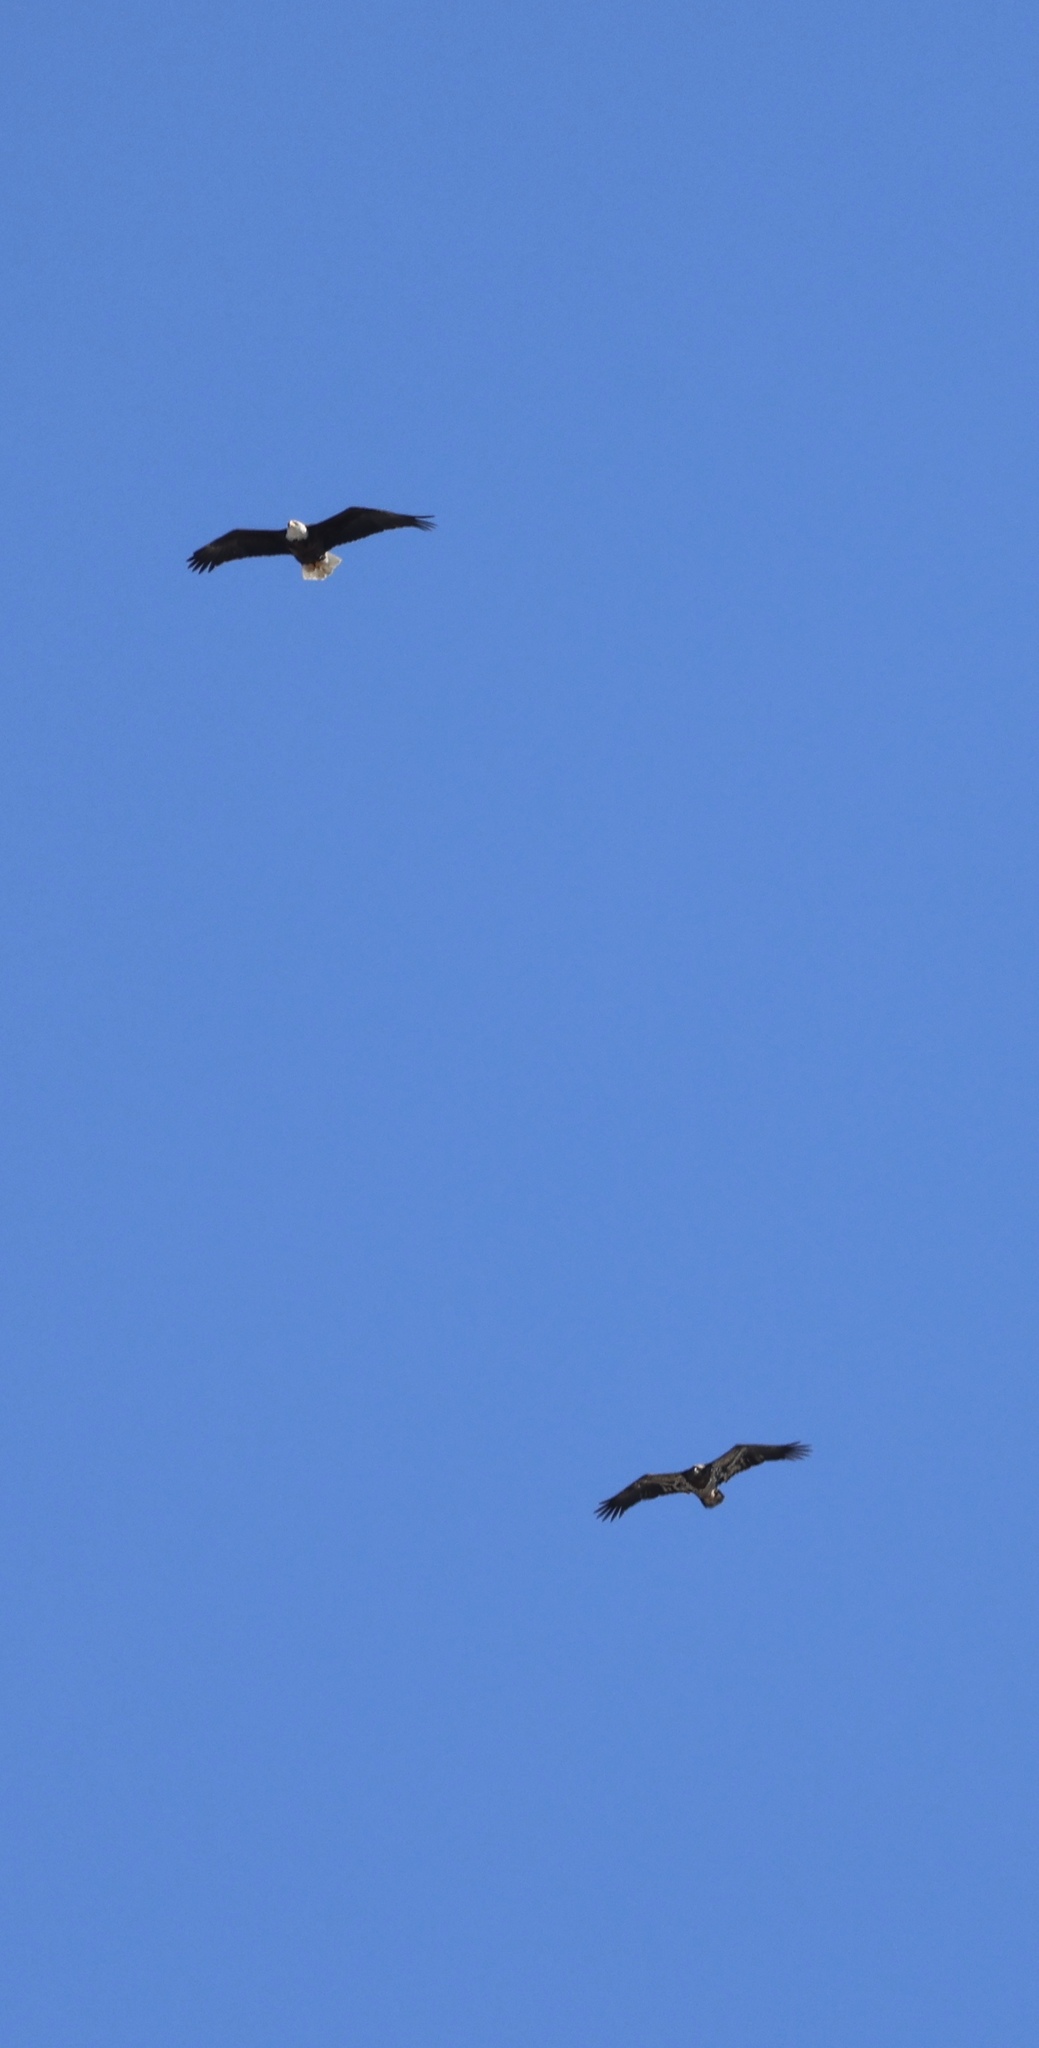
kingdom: Animalia
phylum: Chordata
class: Aves
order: Accipitriformes
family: Accipitridae
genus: Haliaeetus
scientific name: Haliaeetus leucocephalus
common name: Bald eagle
